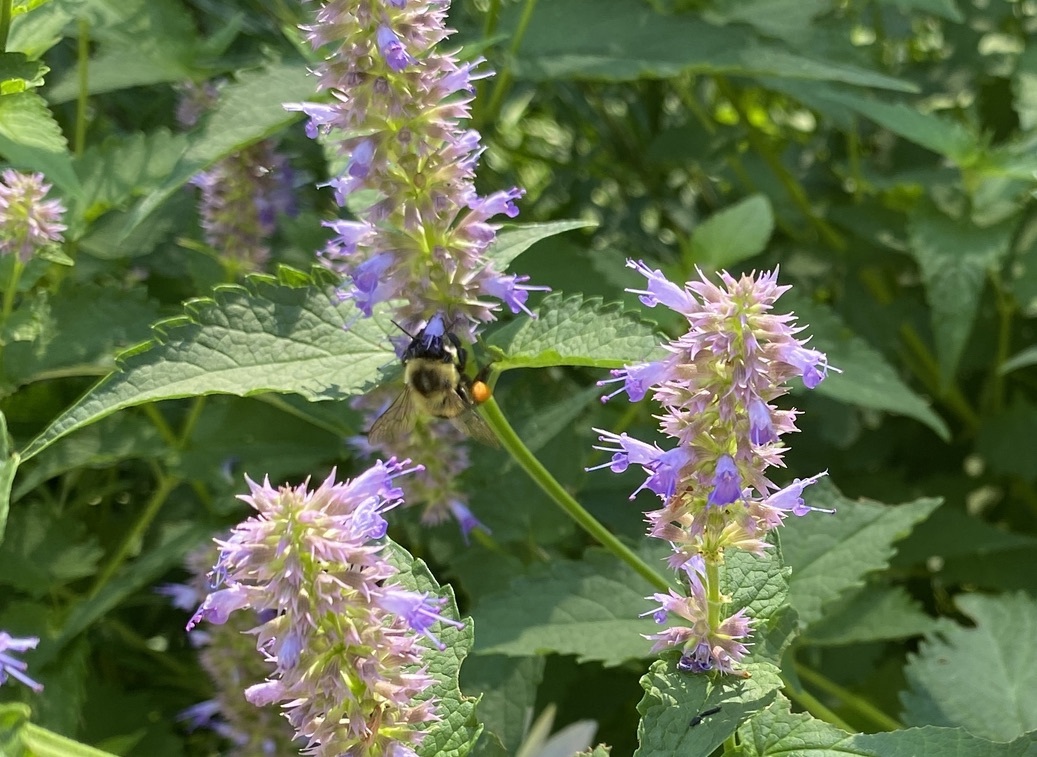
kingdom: Animalia
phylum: Arthropoda
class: Insecta
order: Hymenoptera
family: Apidae
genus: Bombus
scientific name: Bombus impatiens
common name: Common eastern bumble bee
